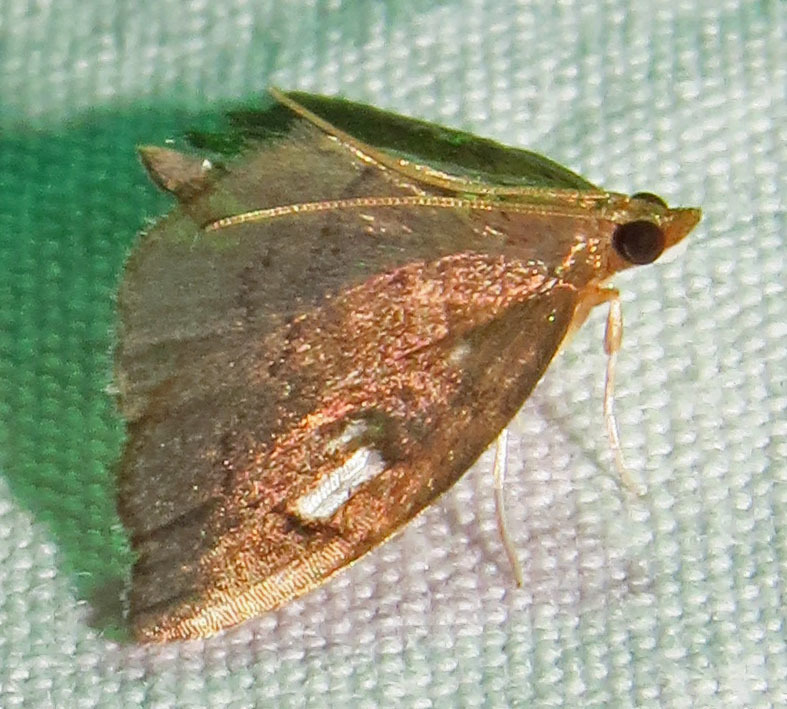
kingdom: Animalia
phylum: Arthropoda
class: Insecta
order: Lepidoptera
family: Crambidae
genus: Perispasta
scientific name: Perispasta caeculalis
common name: Titian peale's moth
